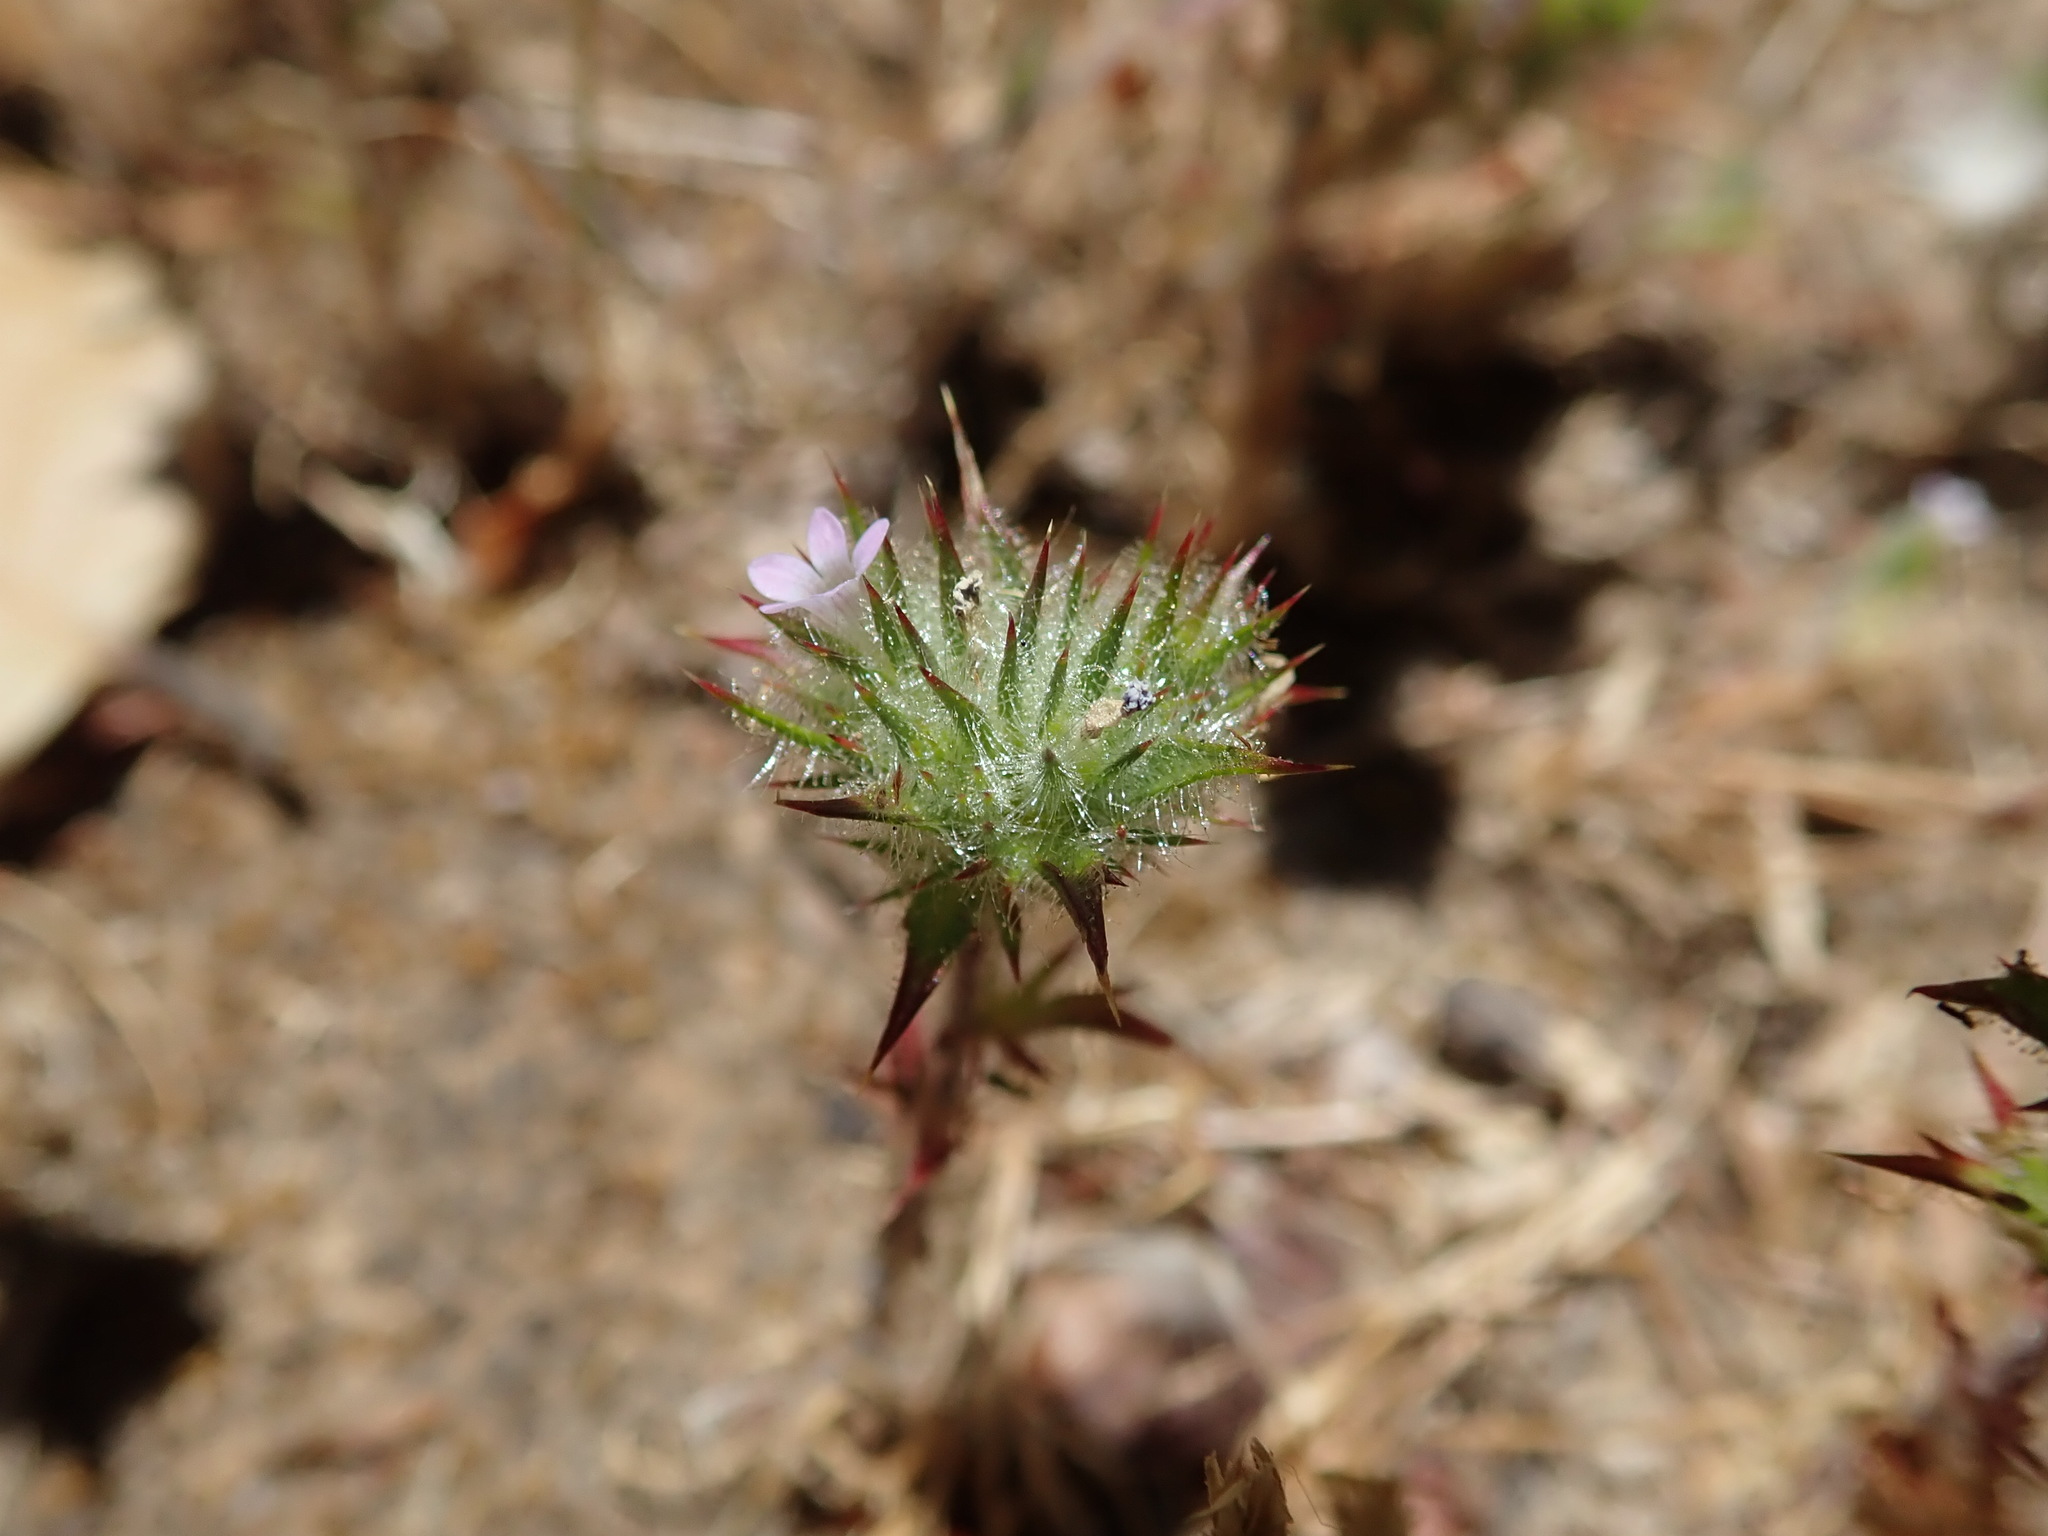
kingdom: Plantae
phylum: Tracheophyta
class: Magnoliopsida
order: Ericales
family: Polemoniaceae
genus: Navarretia
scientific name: Navarretia mellita
